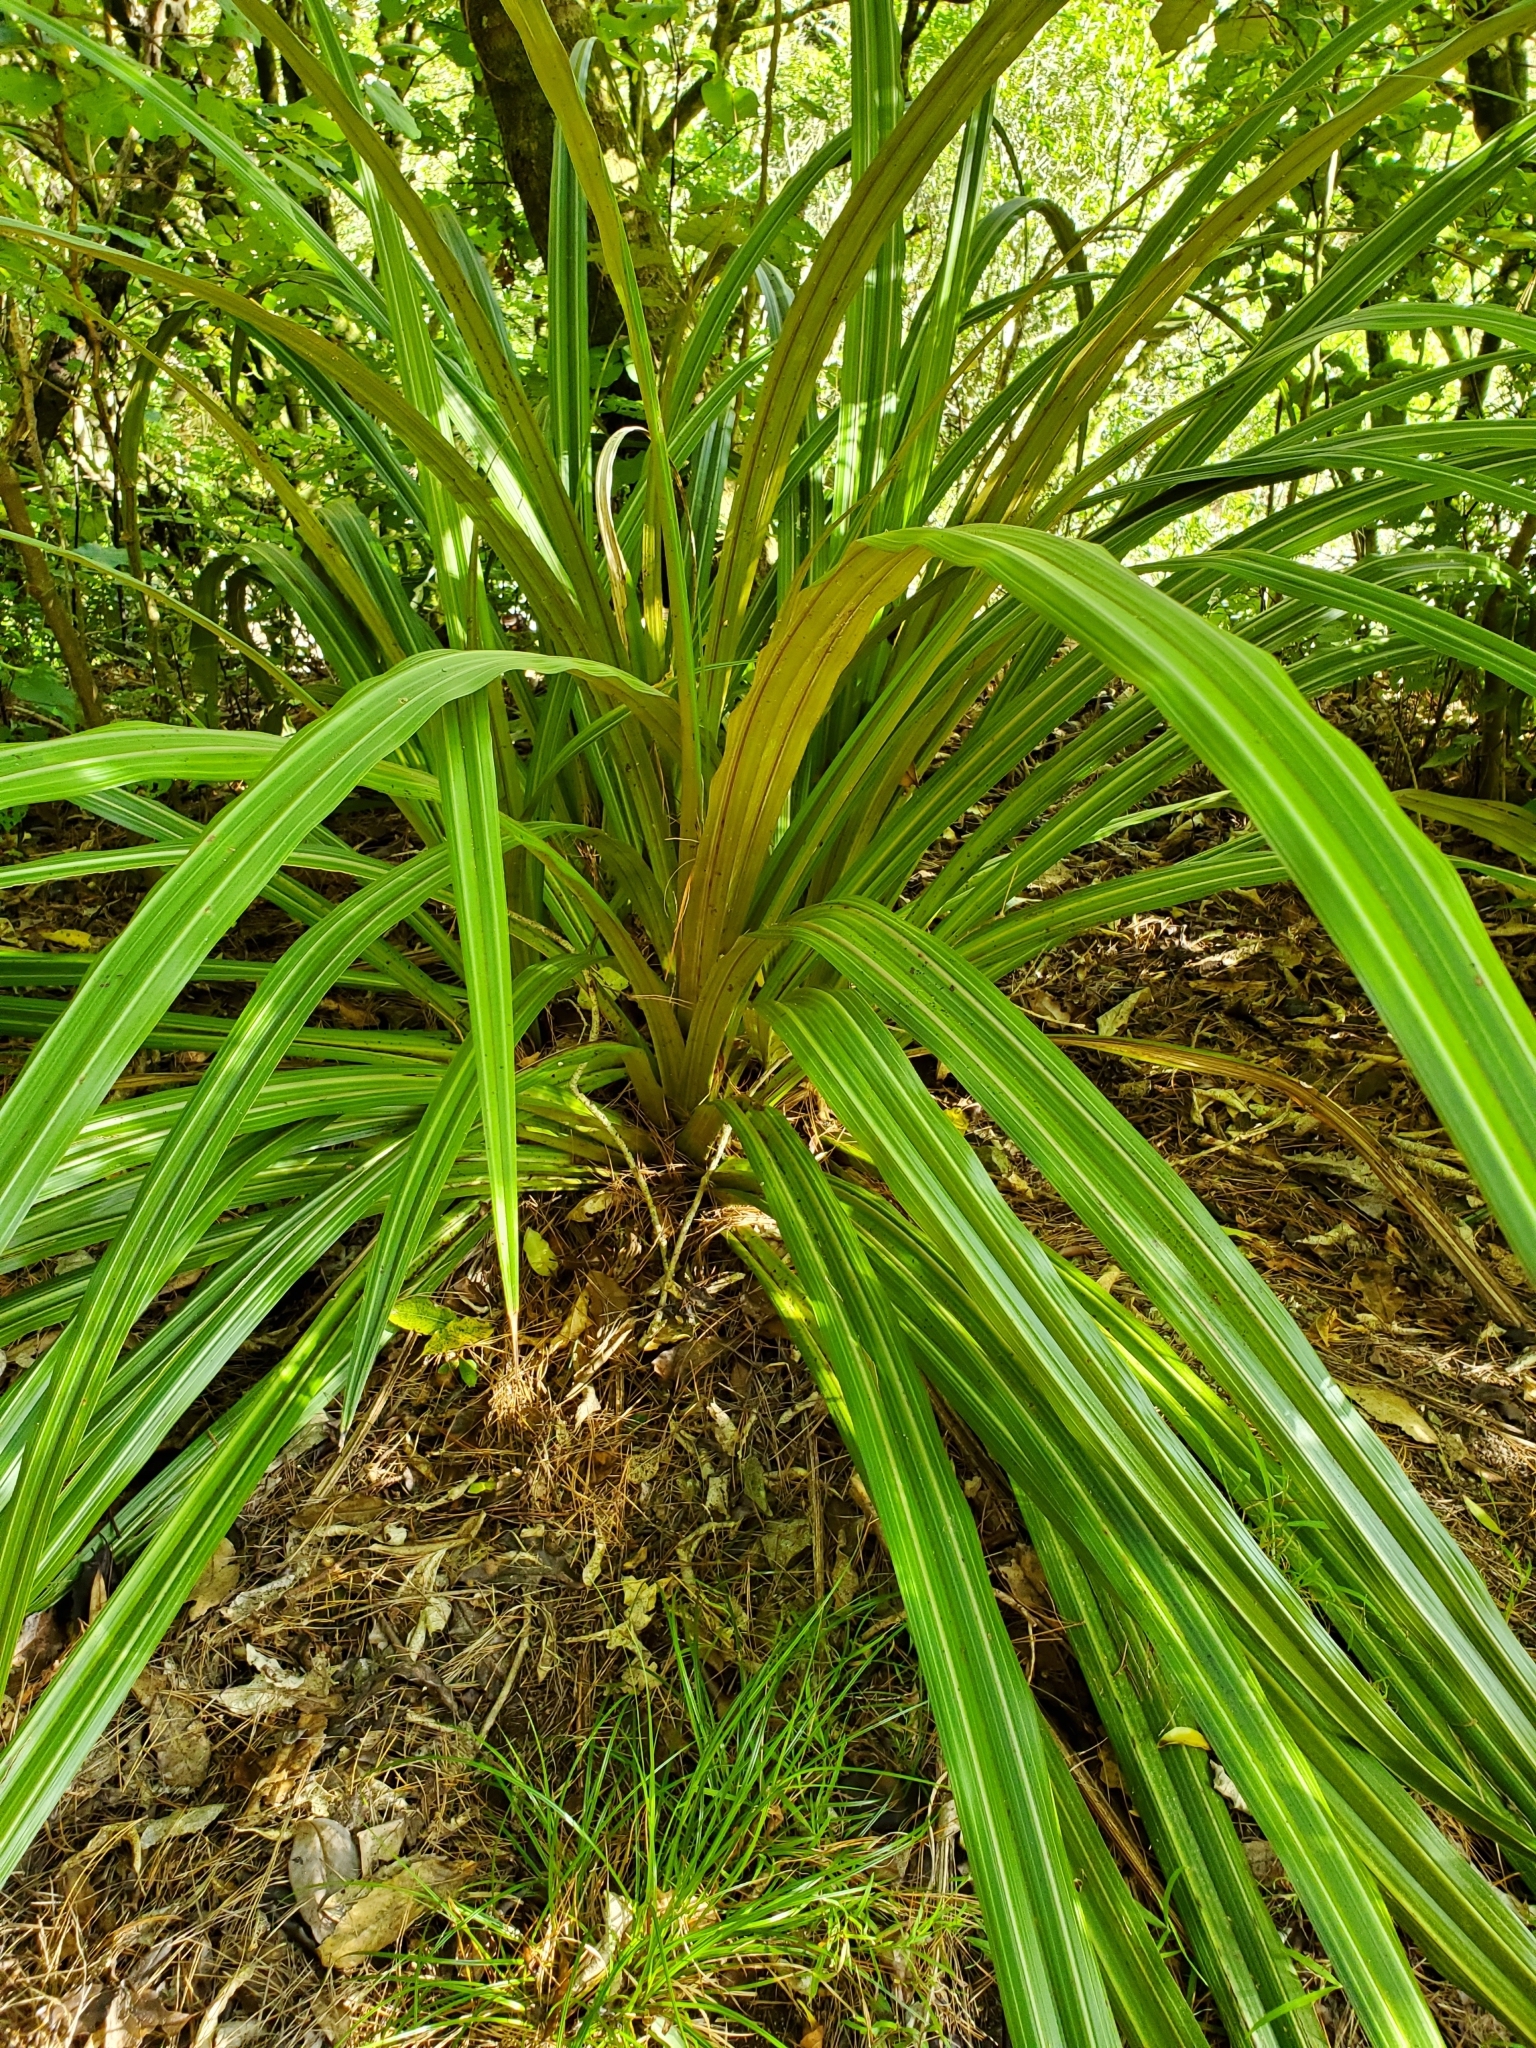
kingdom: Plantae
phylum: Tracheophyta
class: Liliopsida
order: Asparagales
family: Asteliaceae
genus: Astelia
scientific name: Astelia fragrans
